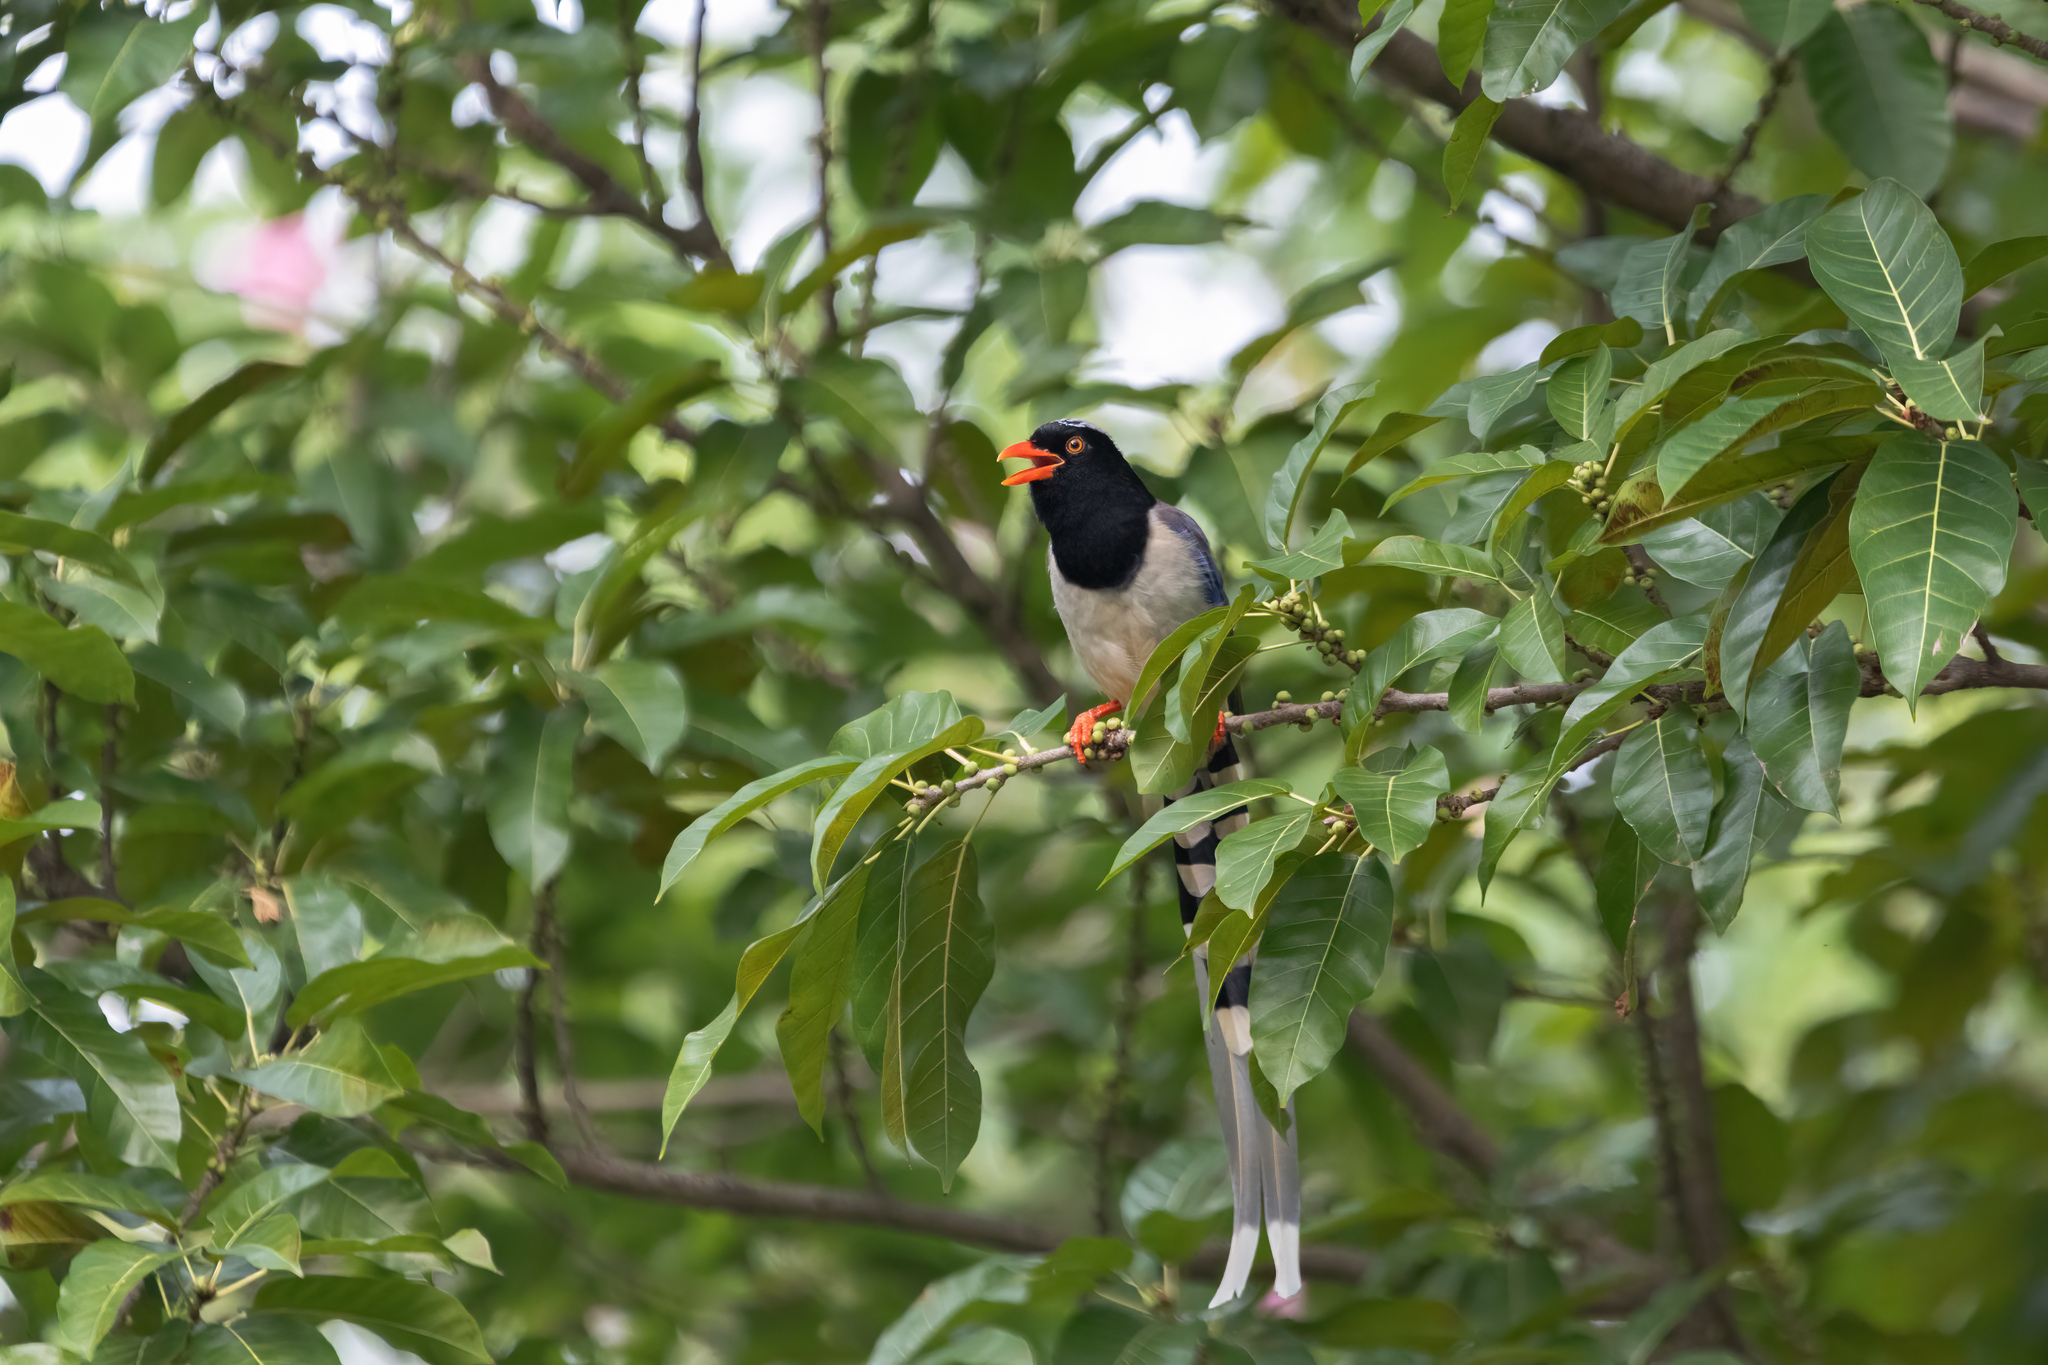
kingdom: Animalia
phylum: Chordata
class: Aves
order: Passeriformes
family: Corvidae
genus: Urocissa
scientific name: Urocissa erythroryncha
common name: Red-billed blue magpie
